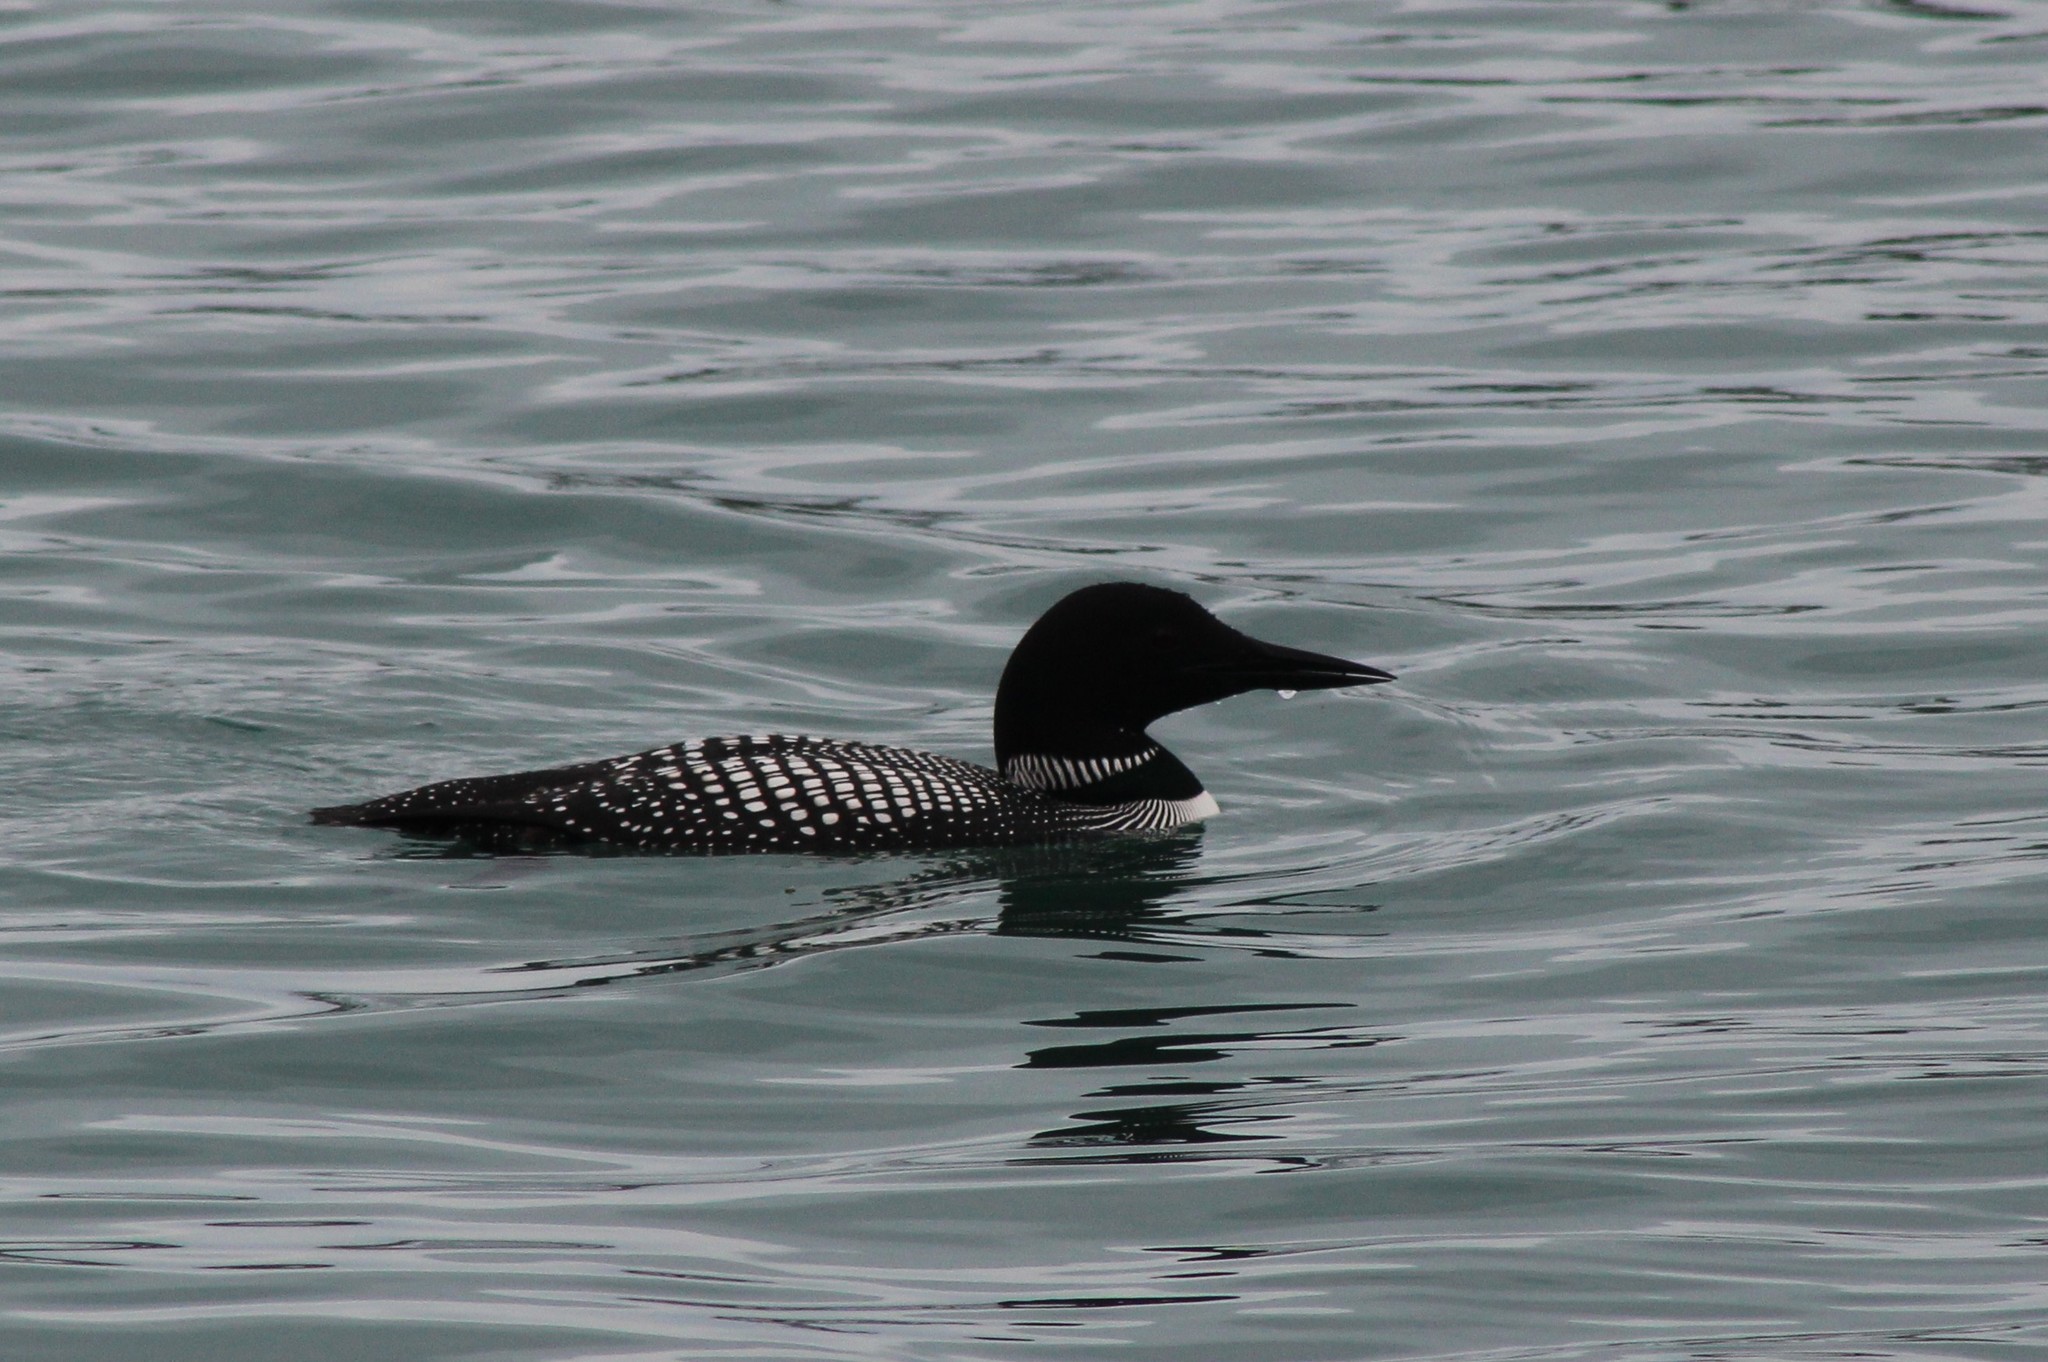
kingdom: Animalia
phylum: Chordata
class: Aves
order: Gaviiformes
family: Gaviidae
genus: Gavia
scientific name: Gavia immer
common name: Common loon
